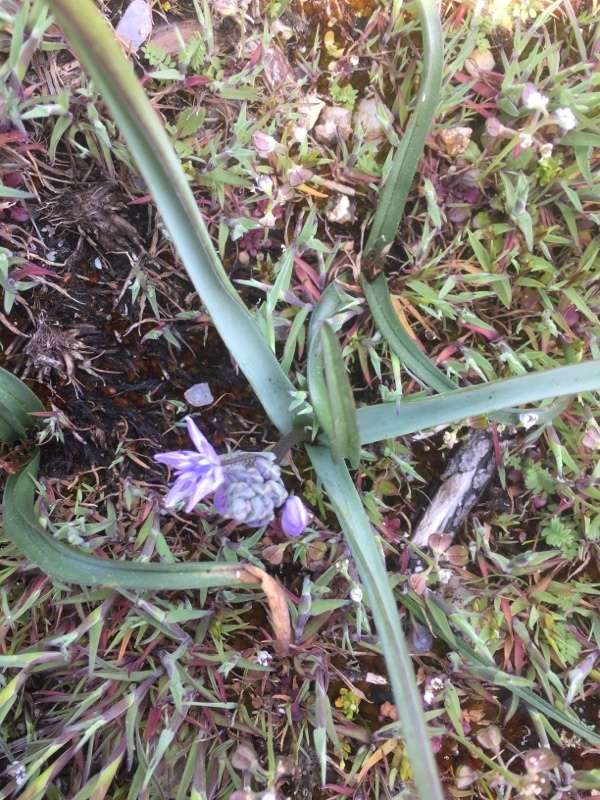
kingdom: Plantae
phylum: Tracheophyta
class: Liliopsida
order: Asparagales
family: Asparagaceae
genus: Scilla
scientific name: Scilla verna
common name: Spring squill
